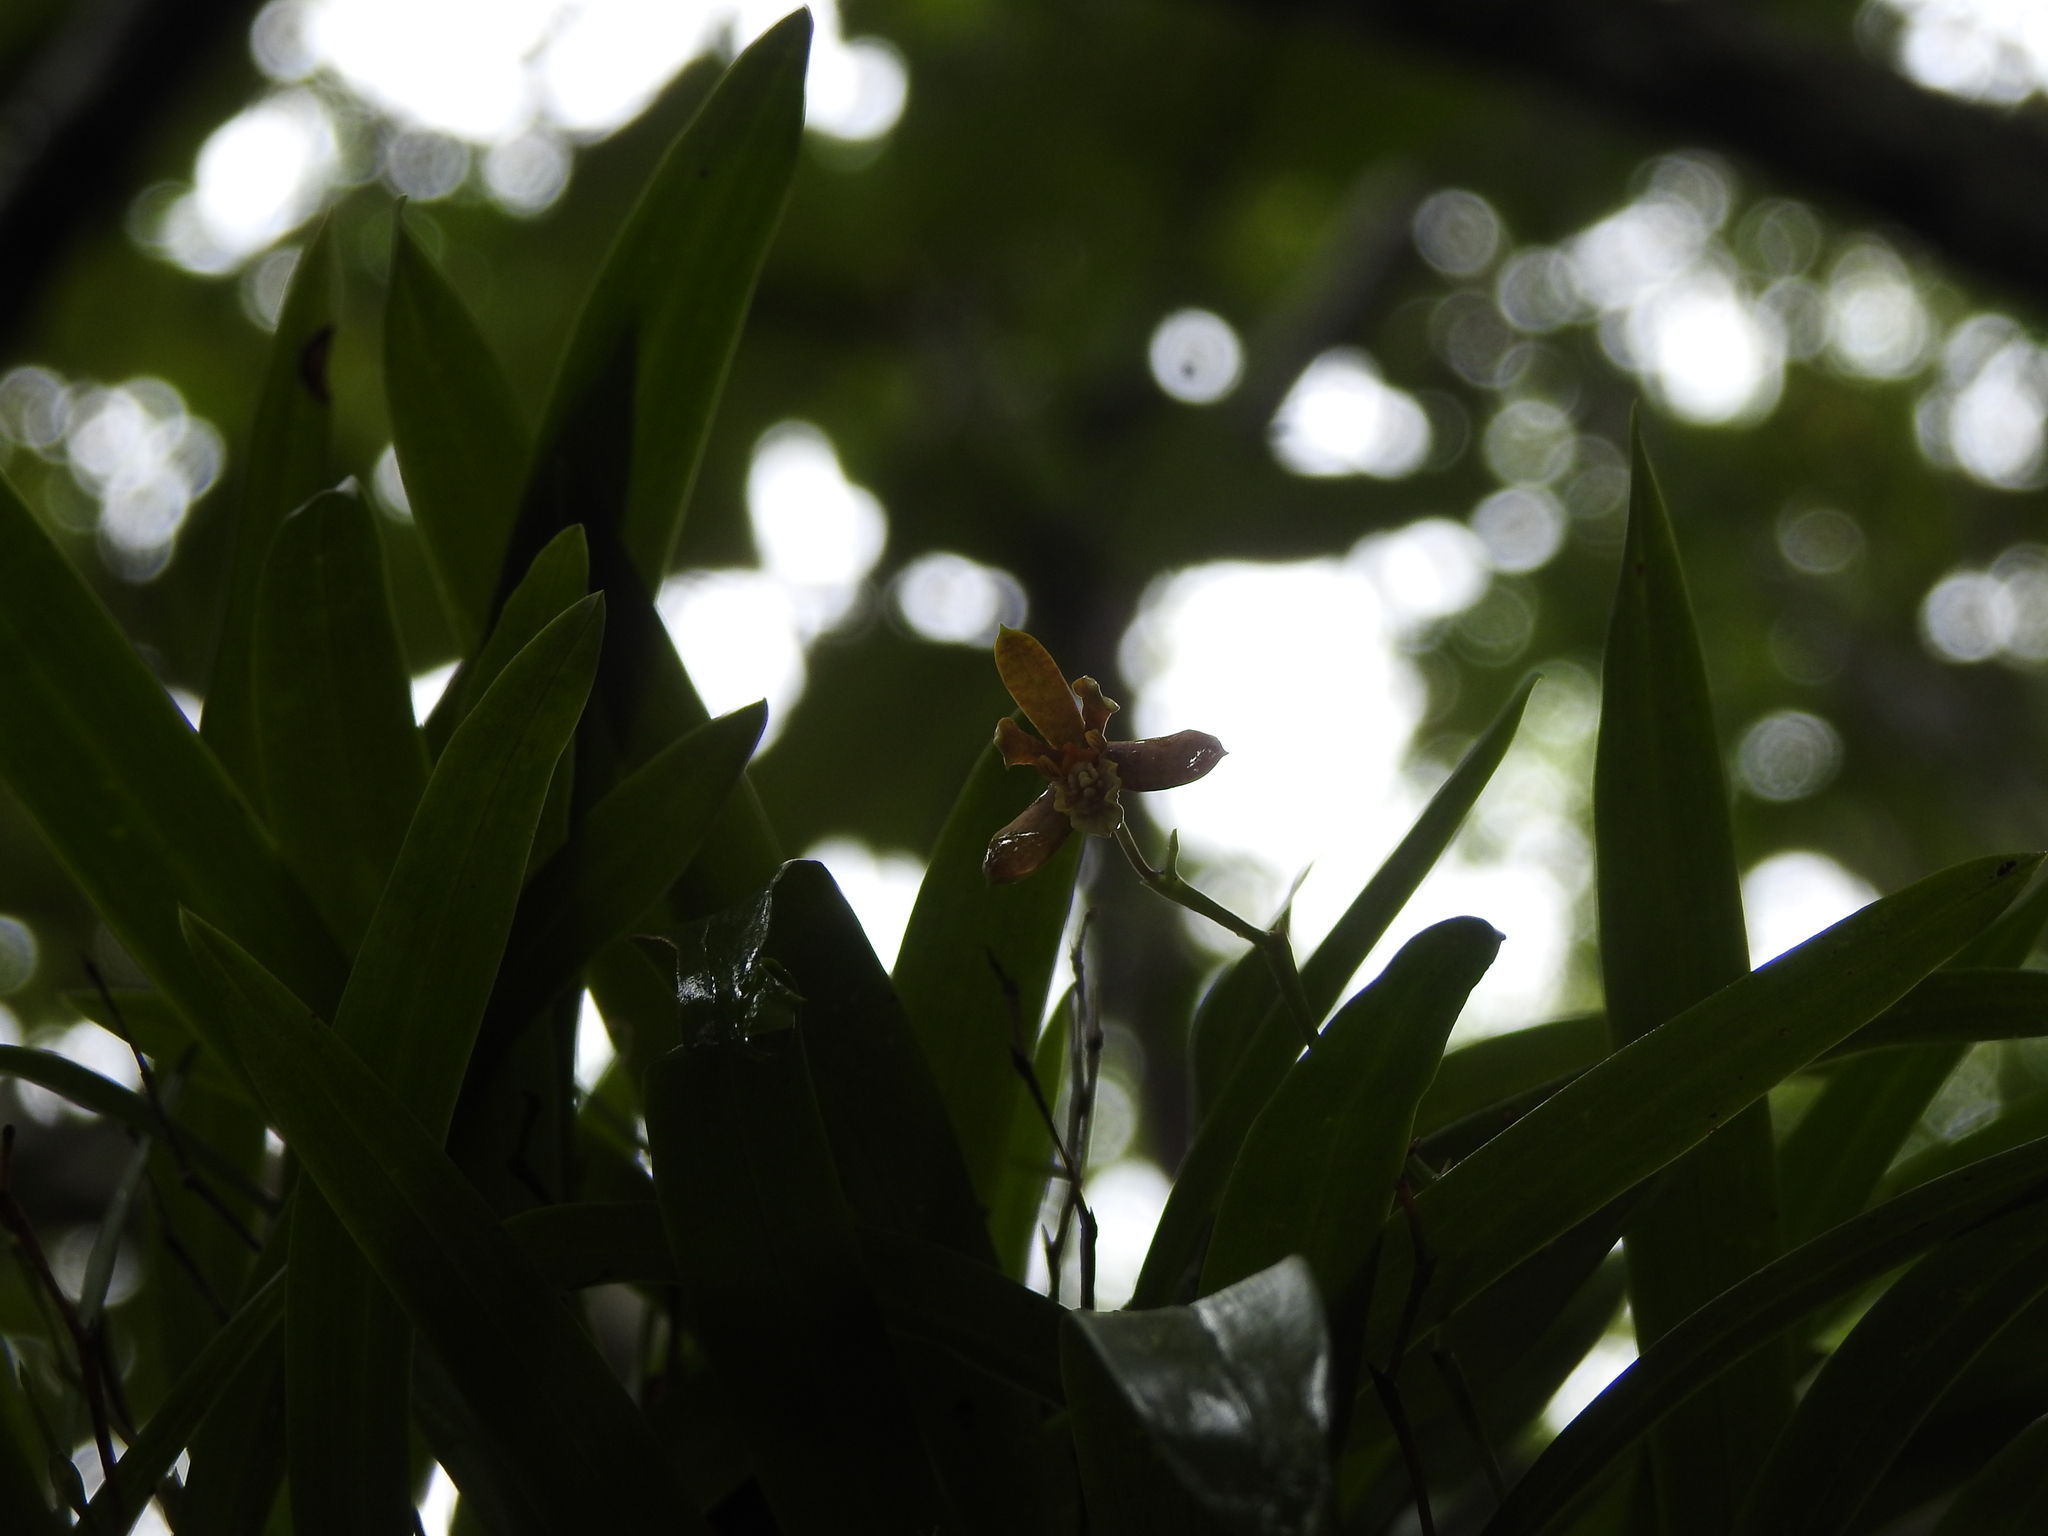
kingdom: Plantae
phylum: Tracheophyta
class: Liliopsida
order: Asparagales
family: Orchidaceae
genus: Prosthechea
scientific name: Prosthechea livida
